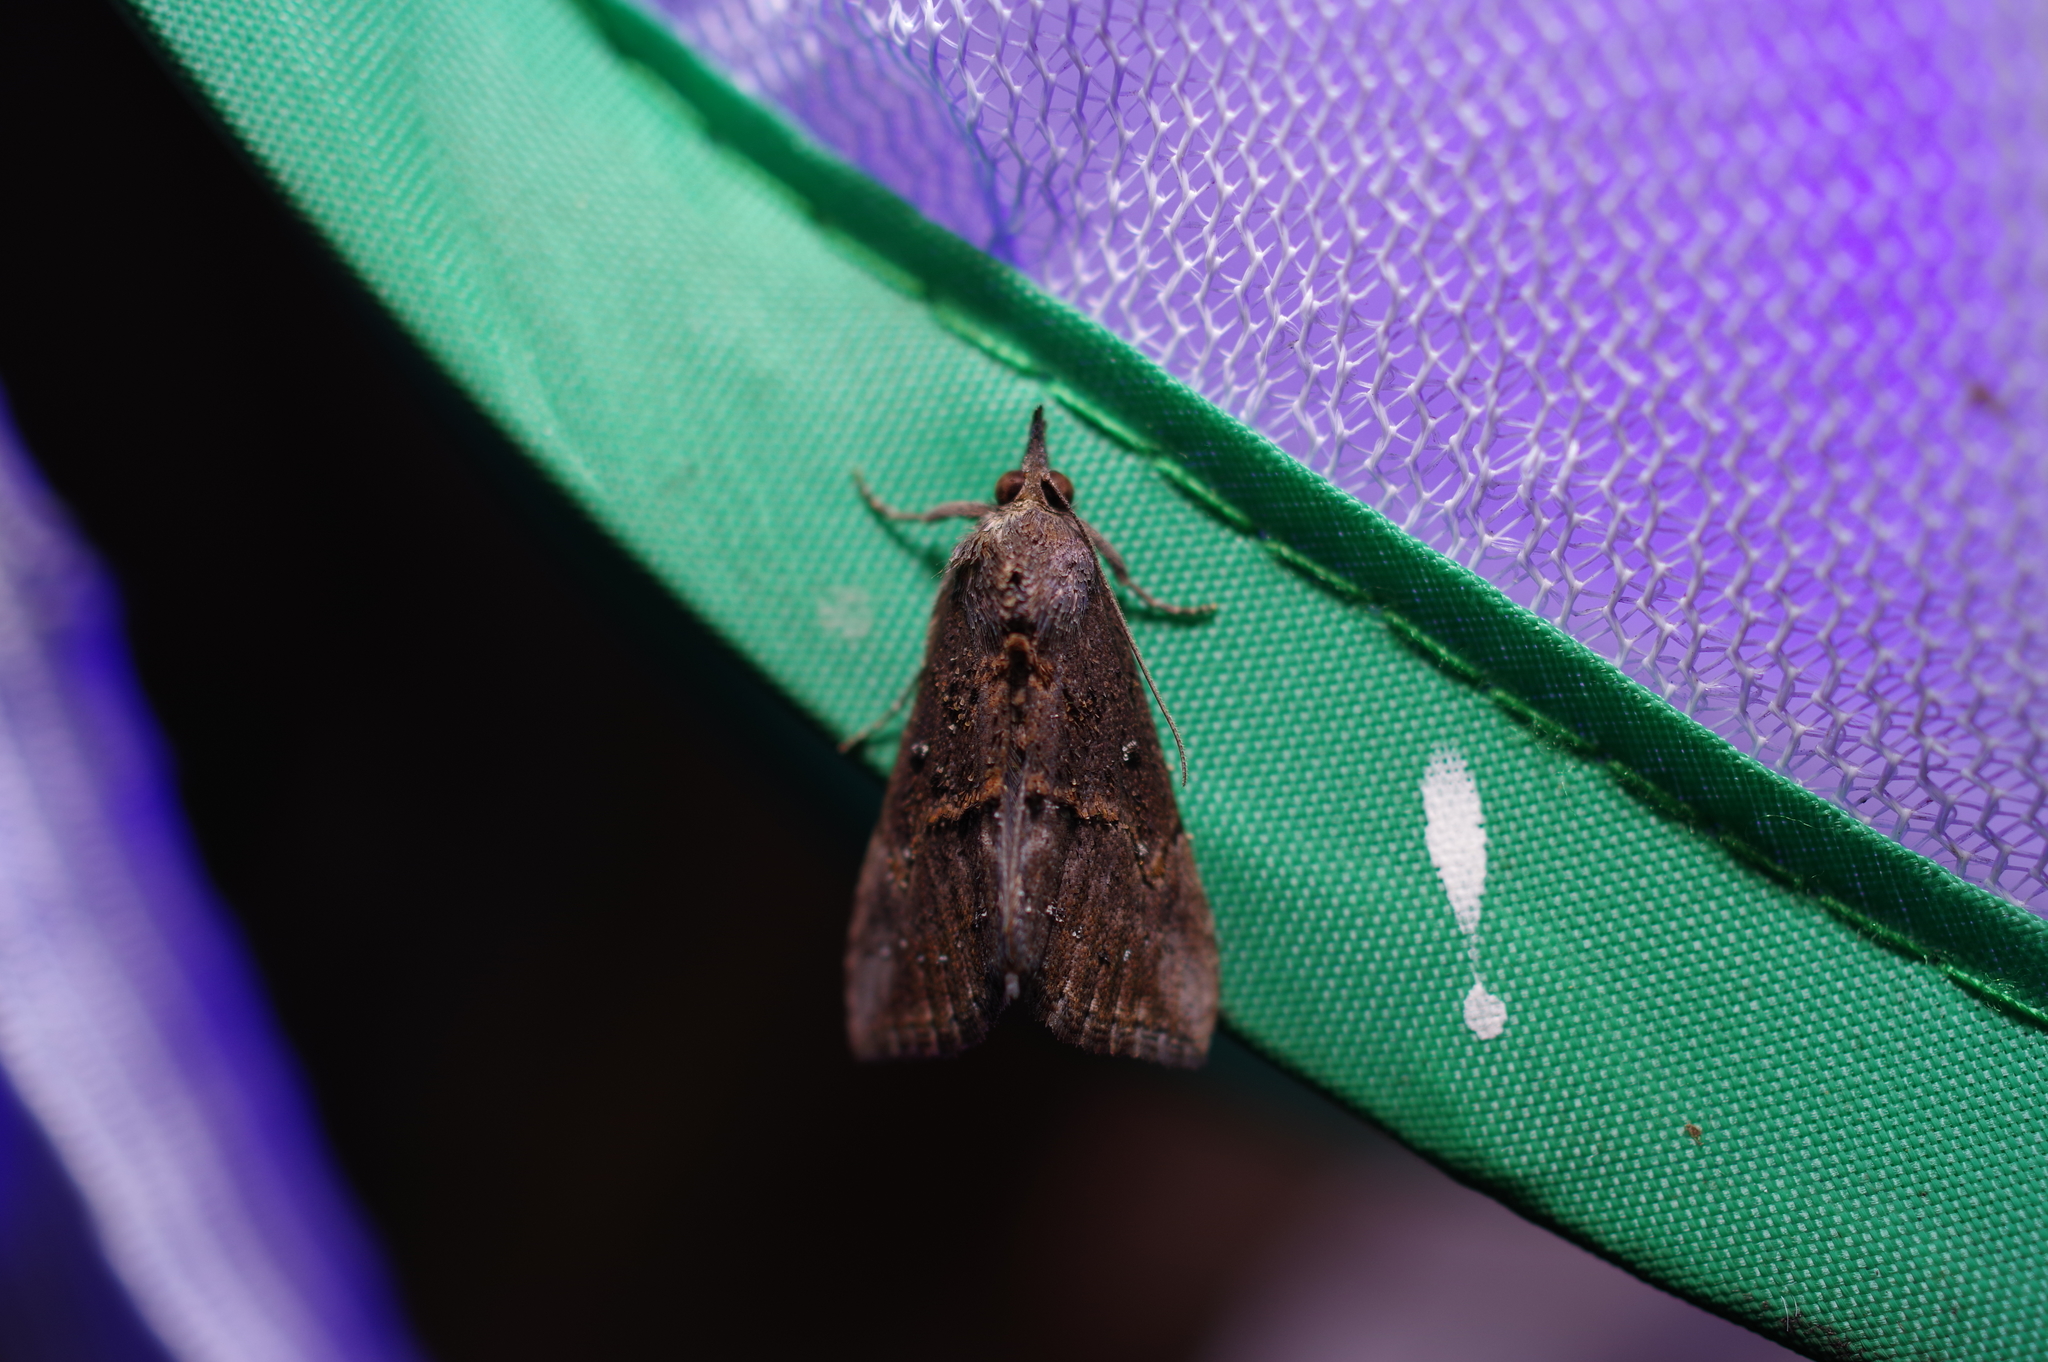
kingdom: Animalia
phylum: Arthropoda
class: Insecta
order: Lepidoptera
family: Erebidae
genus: Hypena
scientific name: Hypena scabra
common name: Green cloverworm
